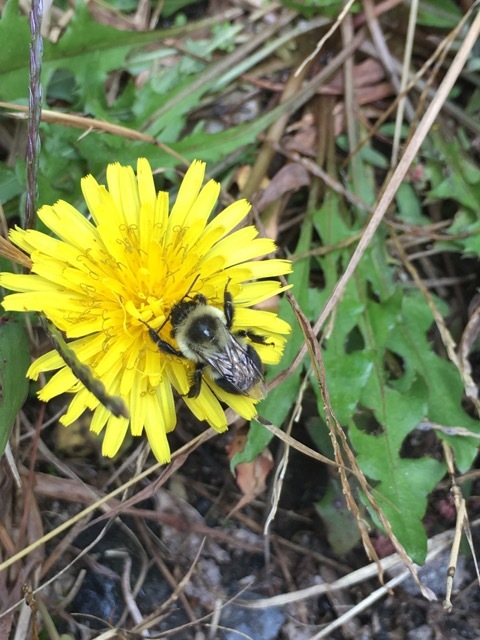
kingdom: Animalia
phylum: Arthropoda
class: Insecta
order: Hymenoptera
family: Apidae
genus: Bombus
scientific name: Bombus impatiens
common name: Common eastern bumble bee
